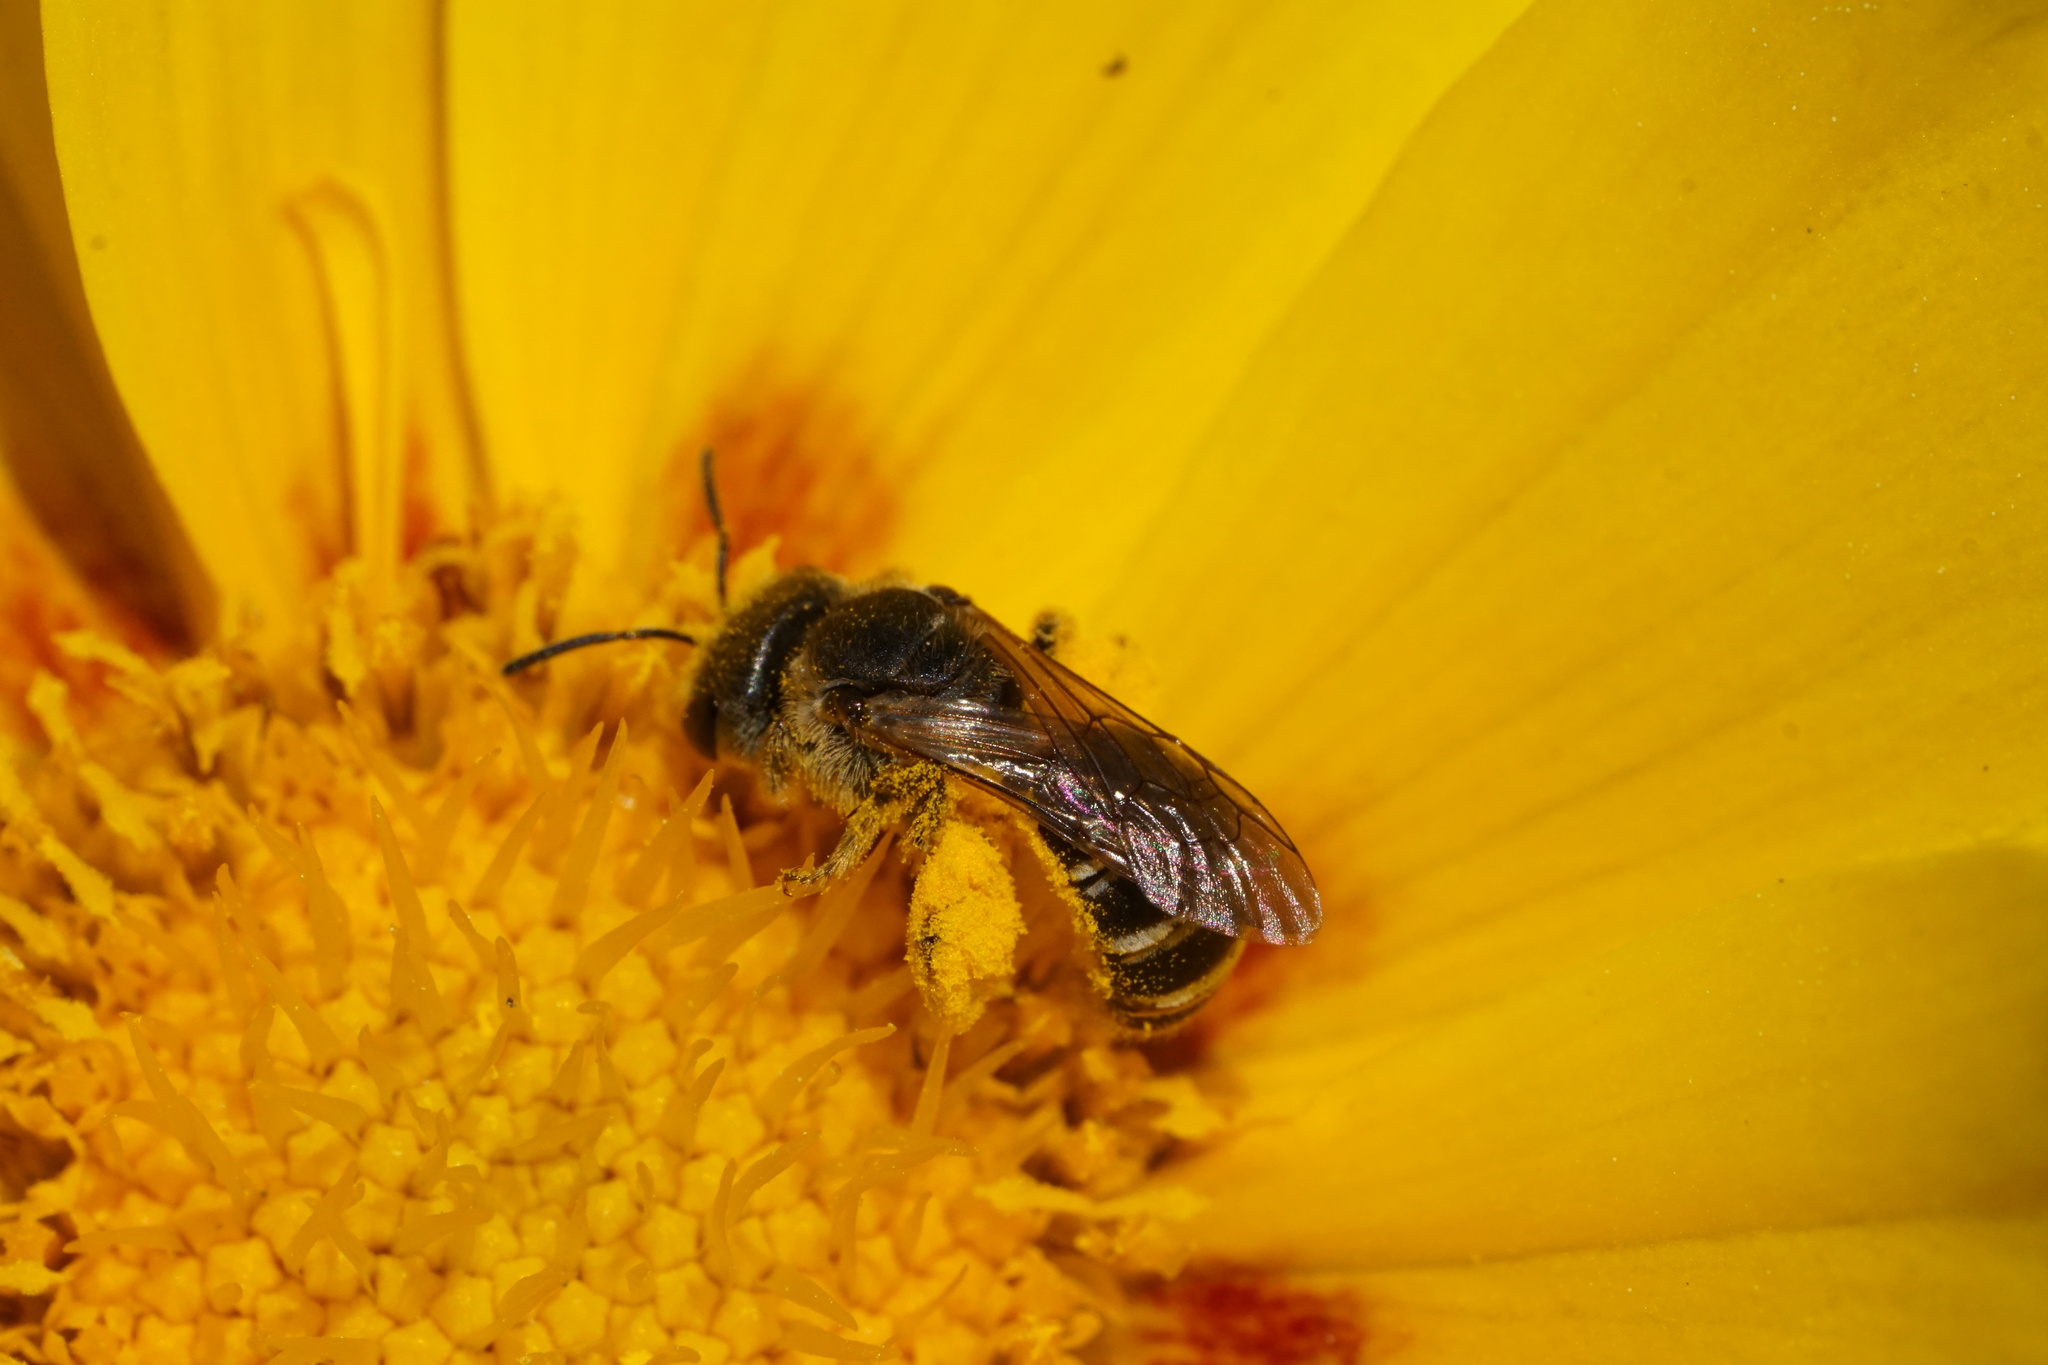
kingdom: Animalia
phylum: Arthropoda
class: Insecta
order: Hymenoptera
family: Halictidae
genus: Halictus
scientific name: Halictus ligatus
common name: Ligated furrow bee
